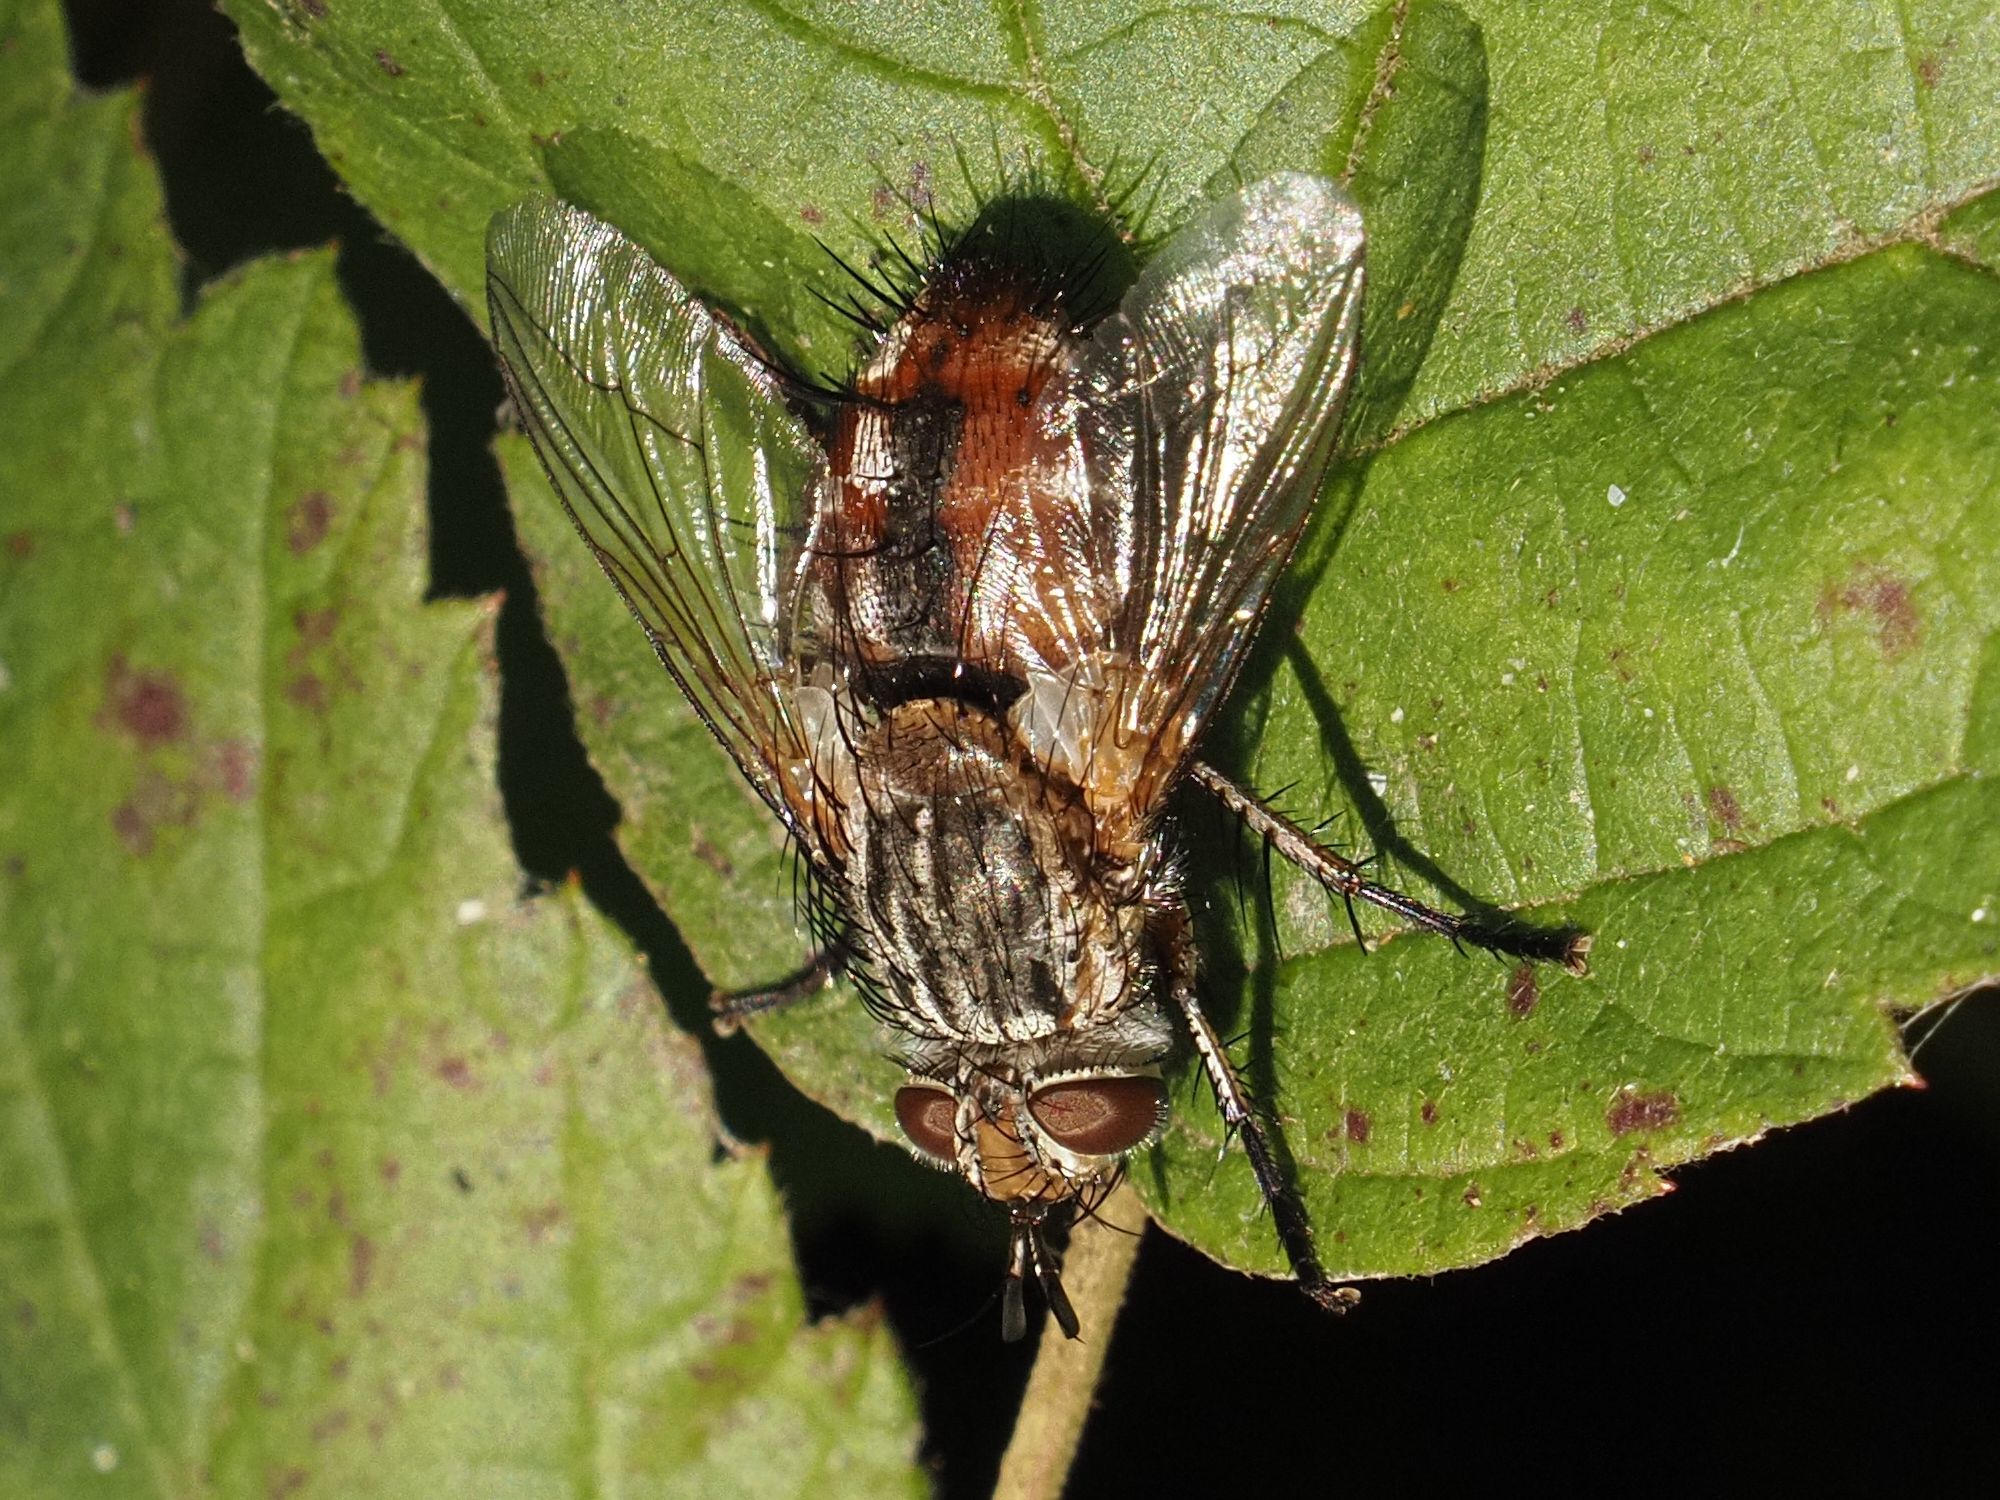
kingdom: Animalia
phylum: Arthropoda
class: Insecta
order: Diptera
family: Tachinidae
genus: Linnaemya
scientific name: Linnaemya vulpina
